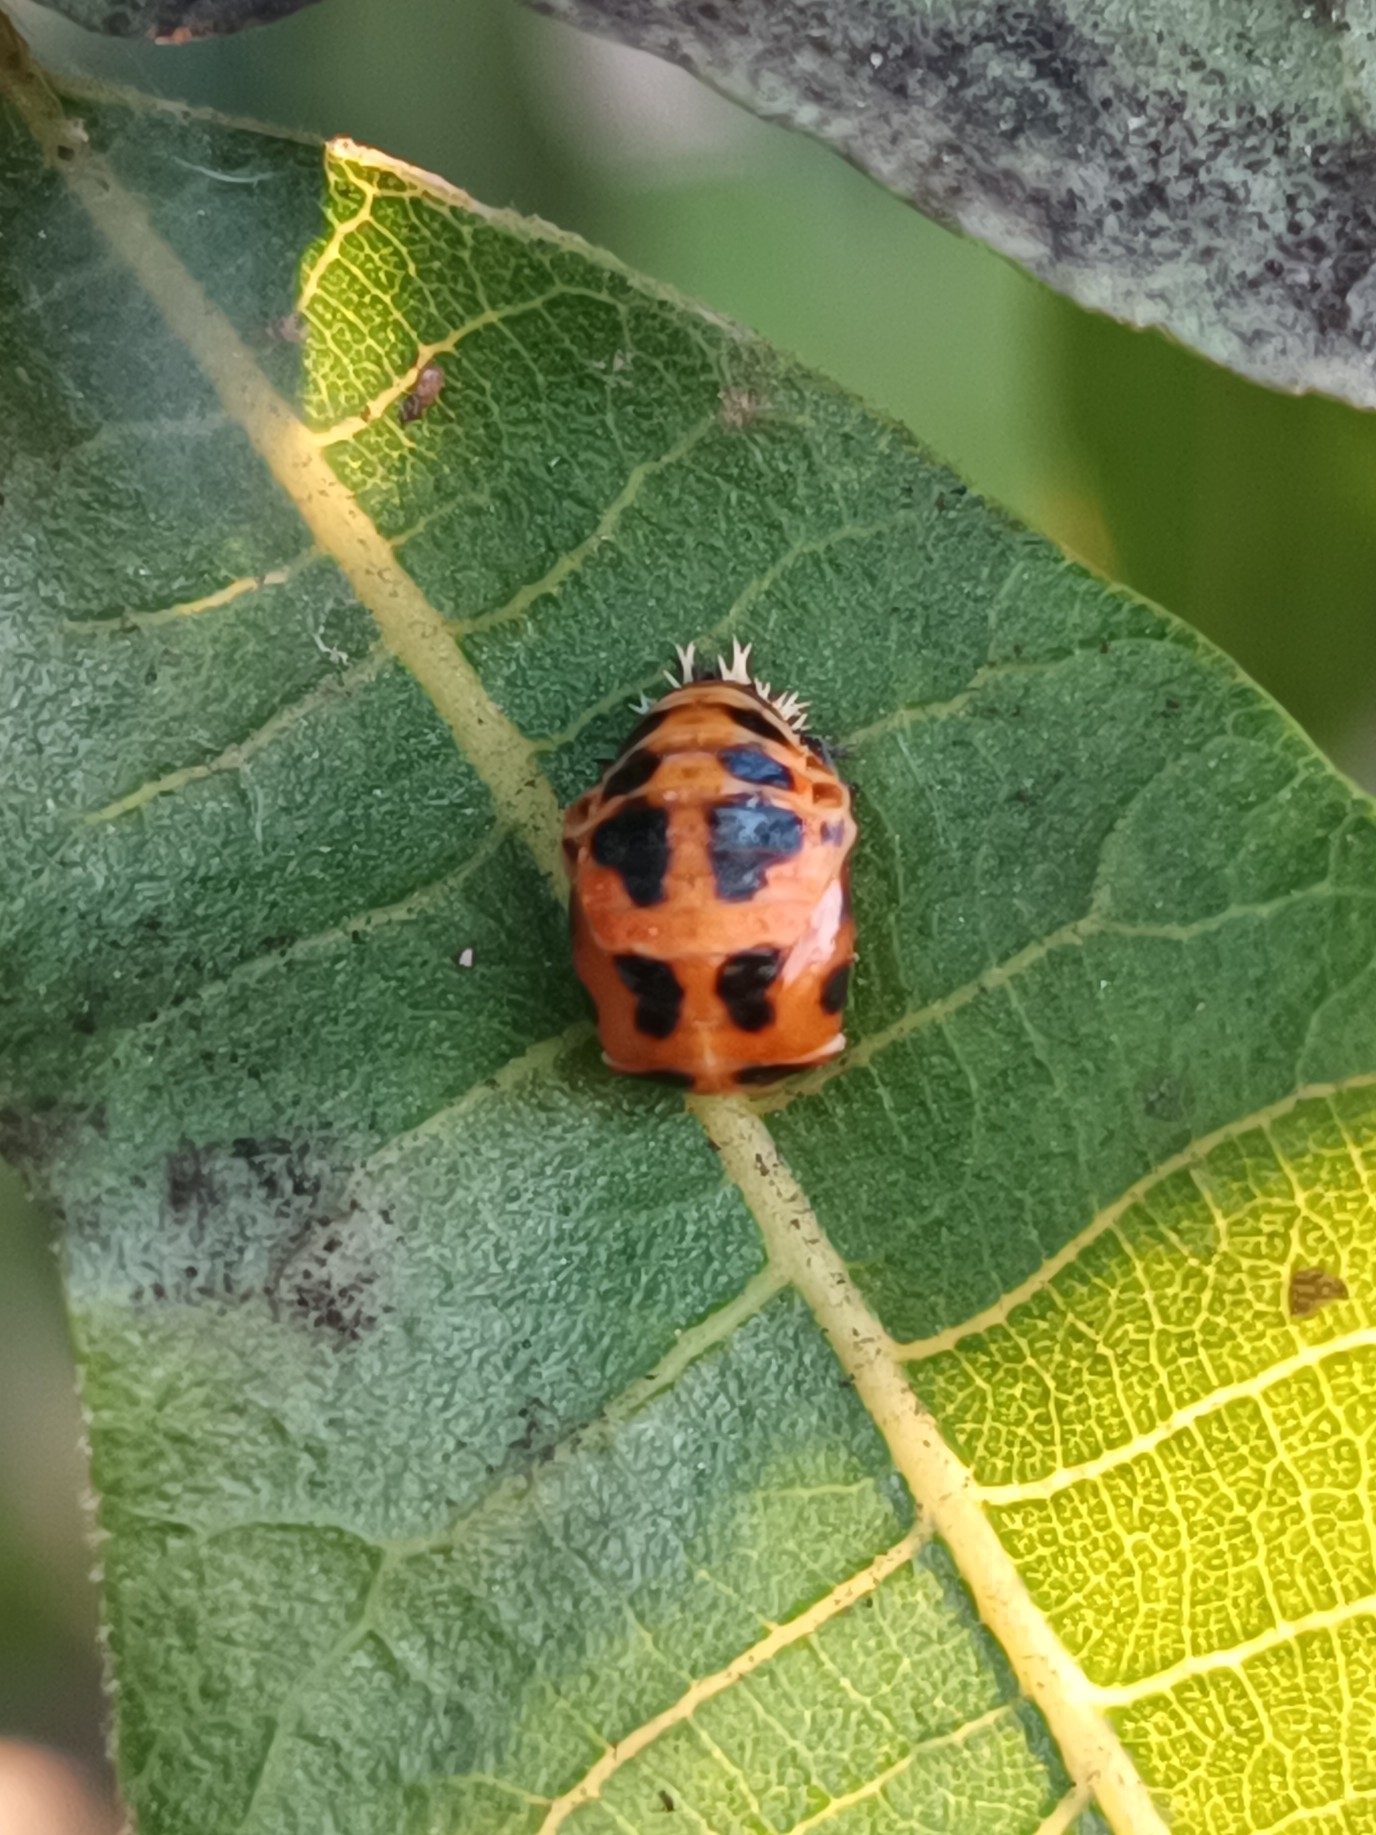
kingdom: Animalia
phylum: Arthropoda
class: Insecta
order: Coleoptera
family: Coccinellidae
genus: Harmonia
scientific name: Harmonia axyridis
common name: Harlequin ladybird
